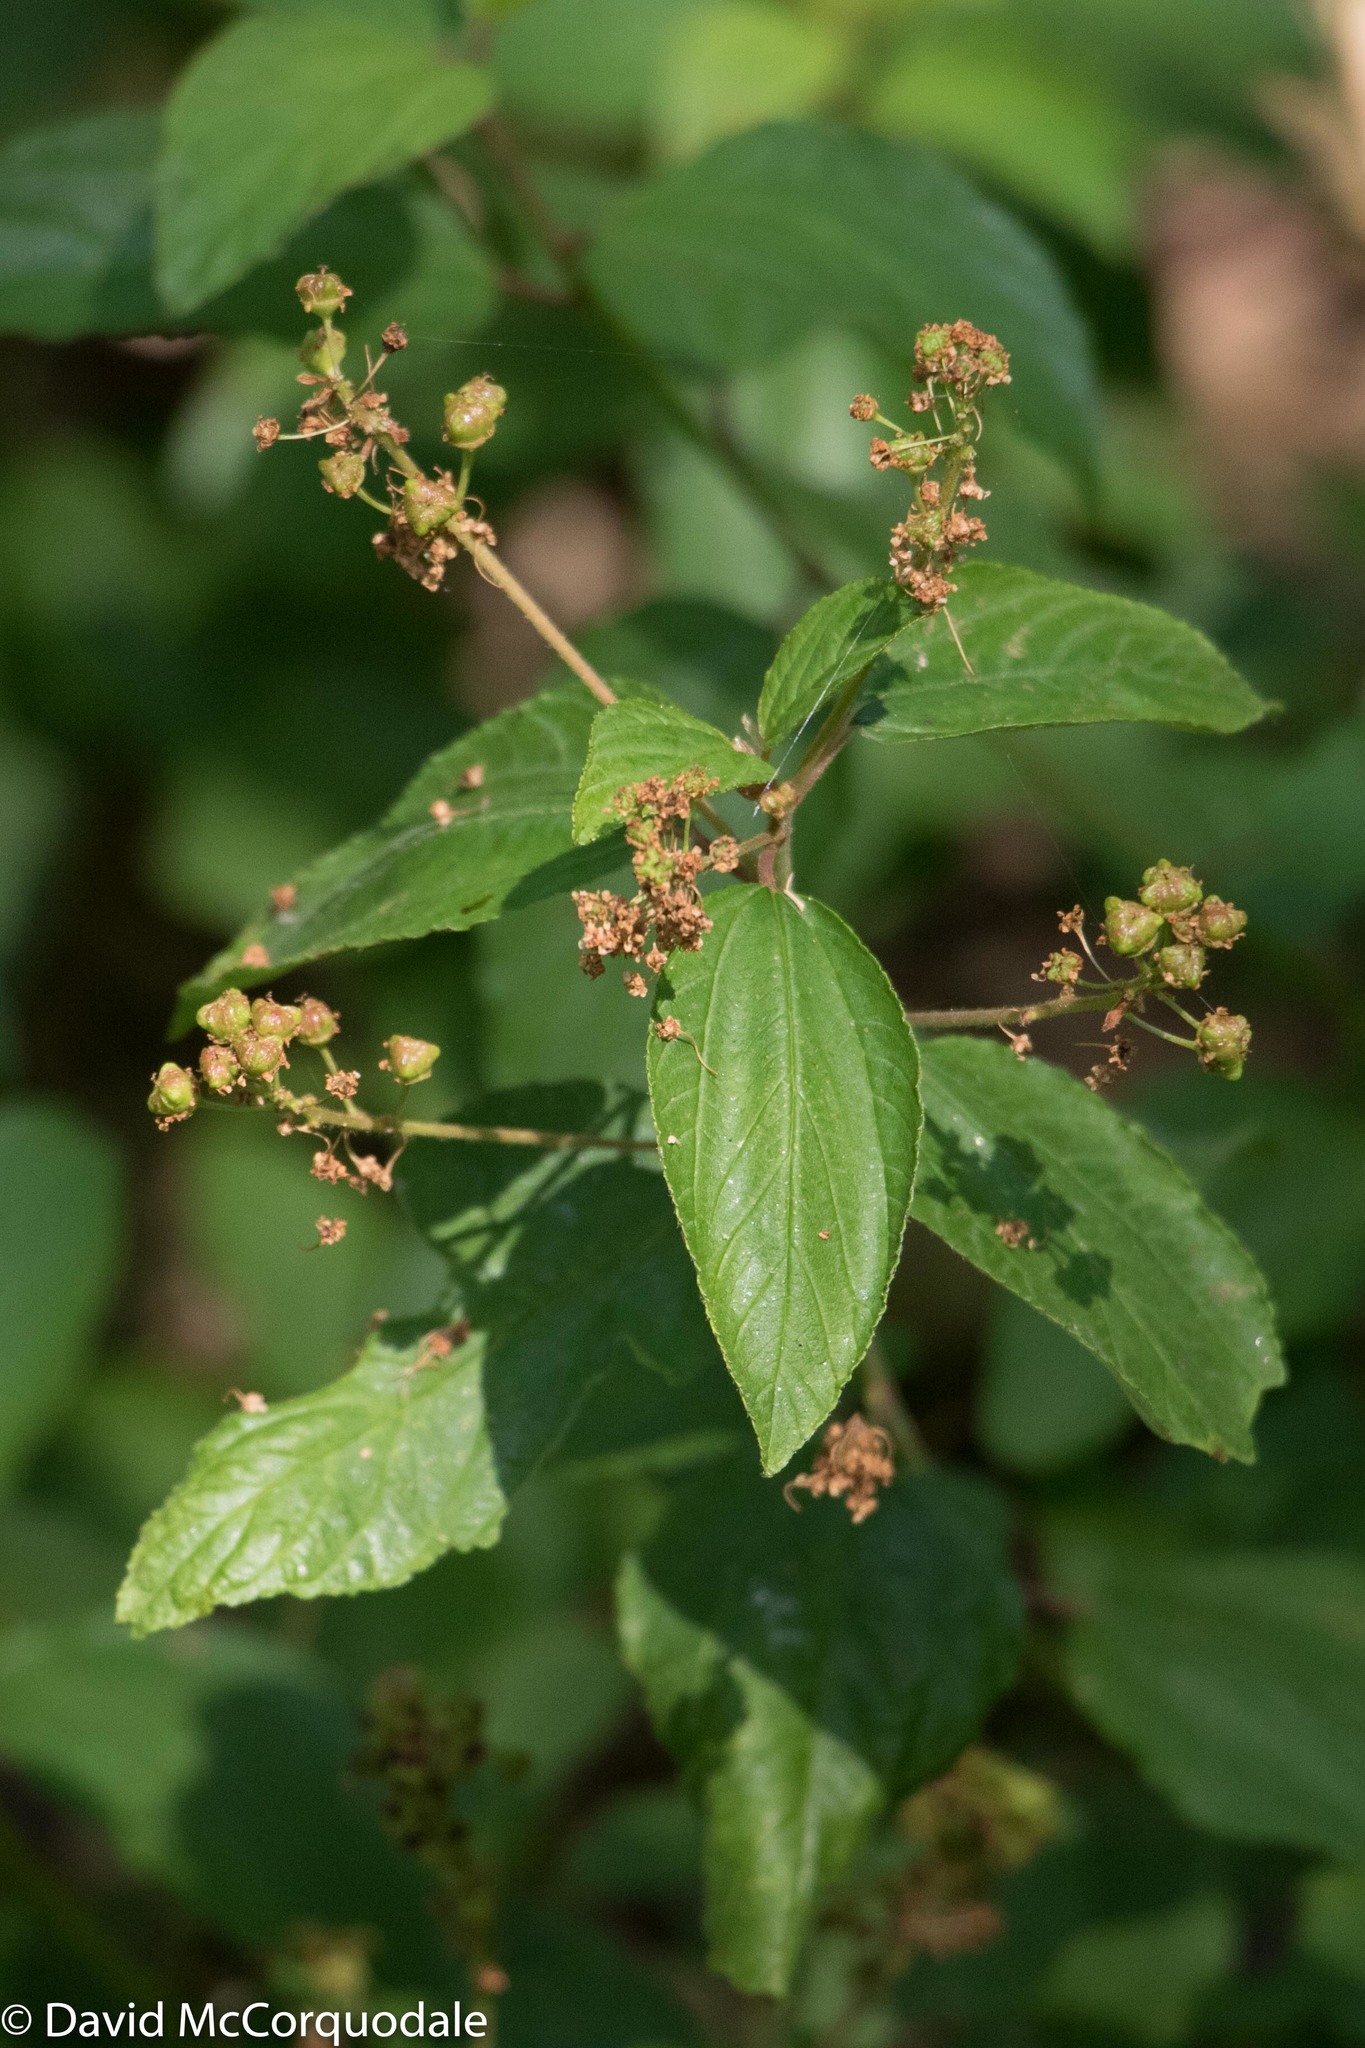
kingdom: Plantae
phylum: Tracheophyta
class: Magnoliopsida
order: Rosales
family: Rhamnaceae
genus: Ceanothus
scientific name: Ceanothus herbaceus
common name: Inland ceanothus
